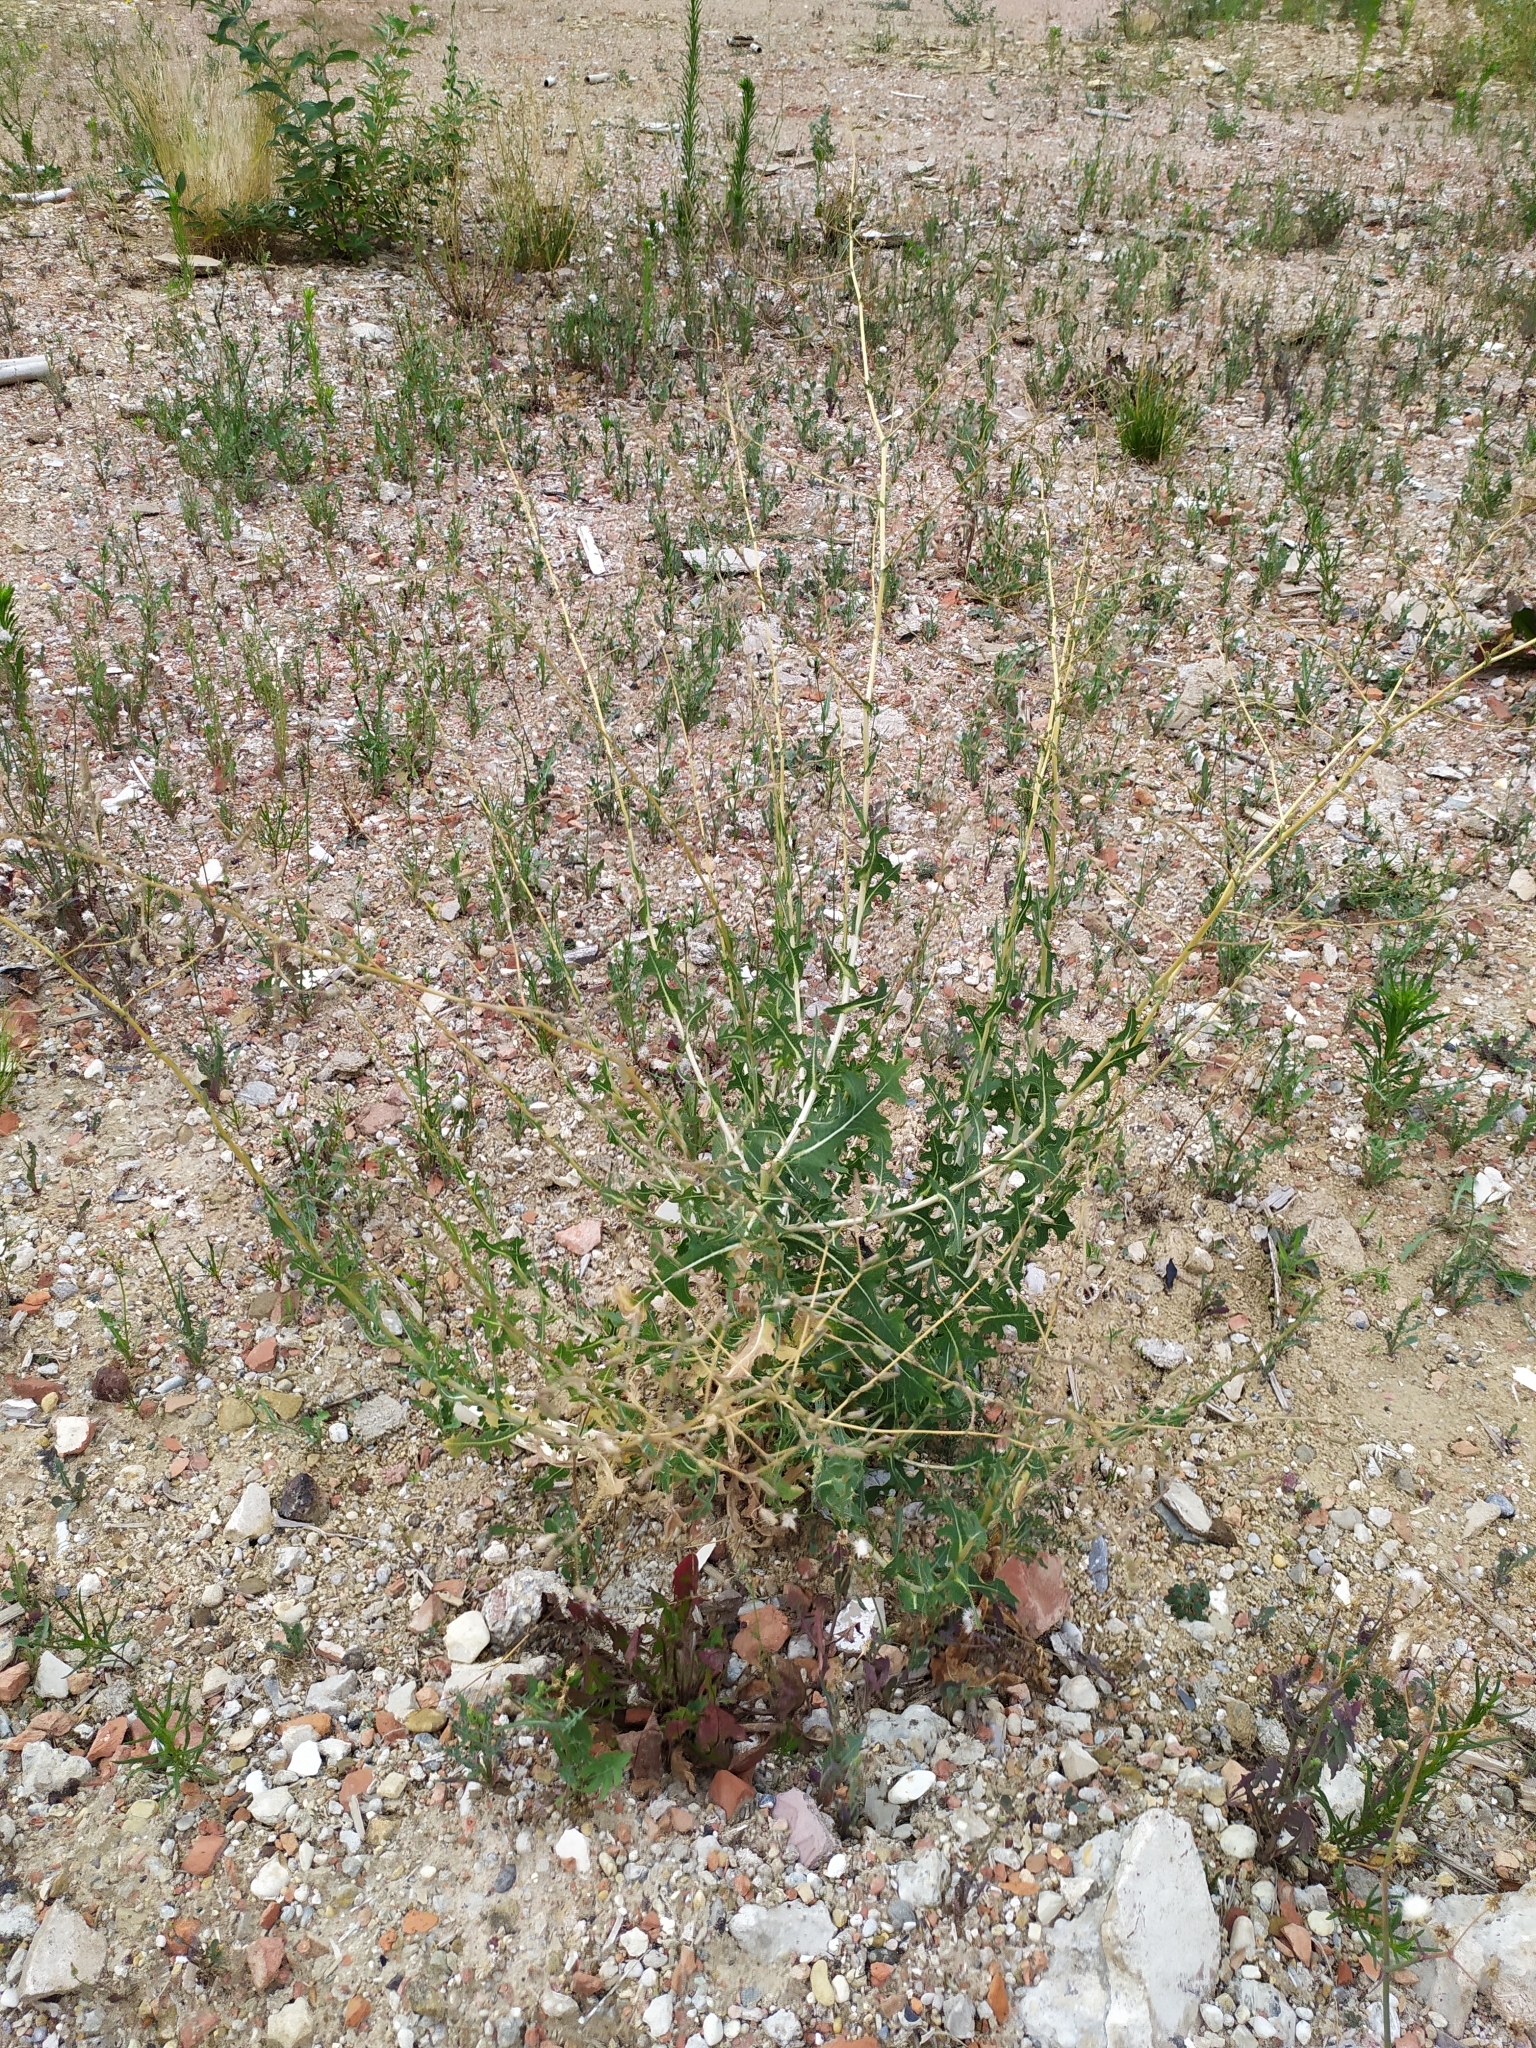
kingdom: Plantae
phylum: Tracheophyta
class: Magnoliopsida
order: Asterales
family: Asteraceae
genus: Lactuca
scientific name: Lactuca serriola
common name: Prickly lettuce
